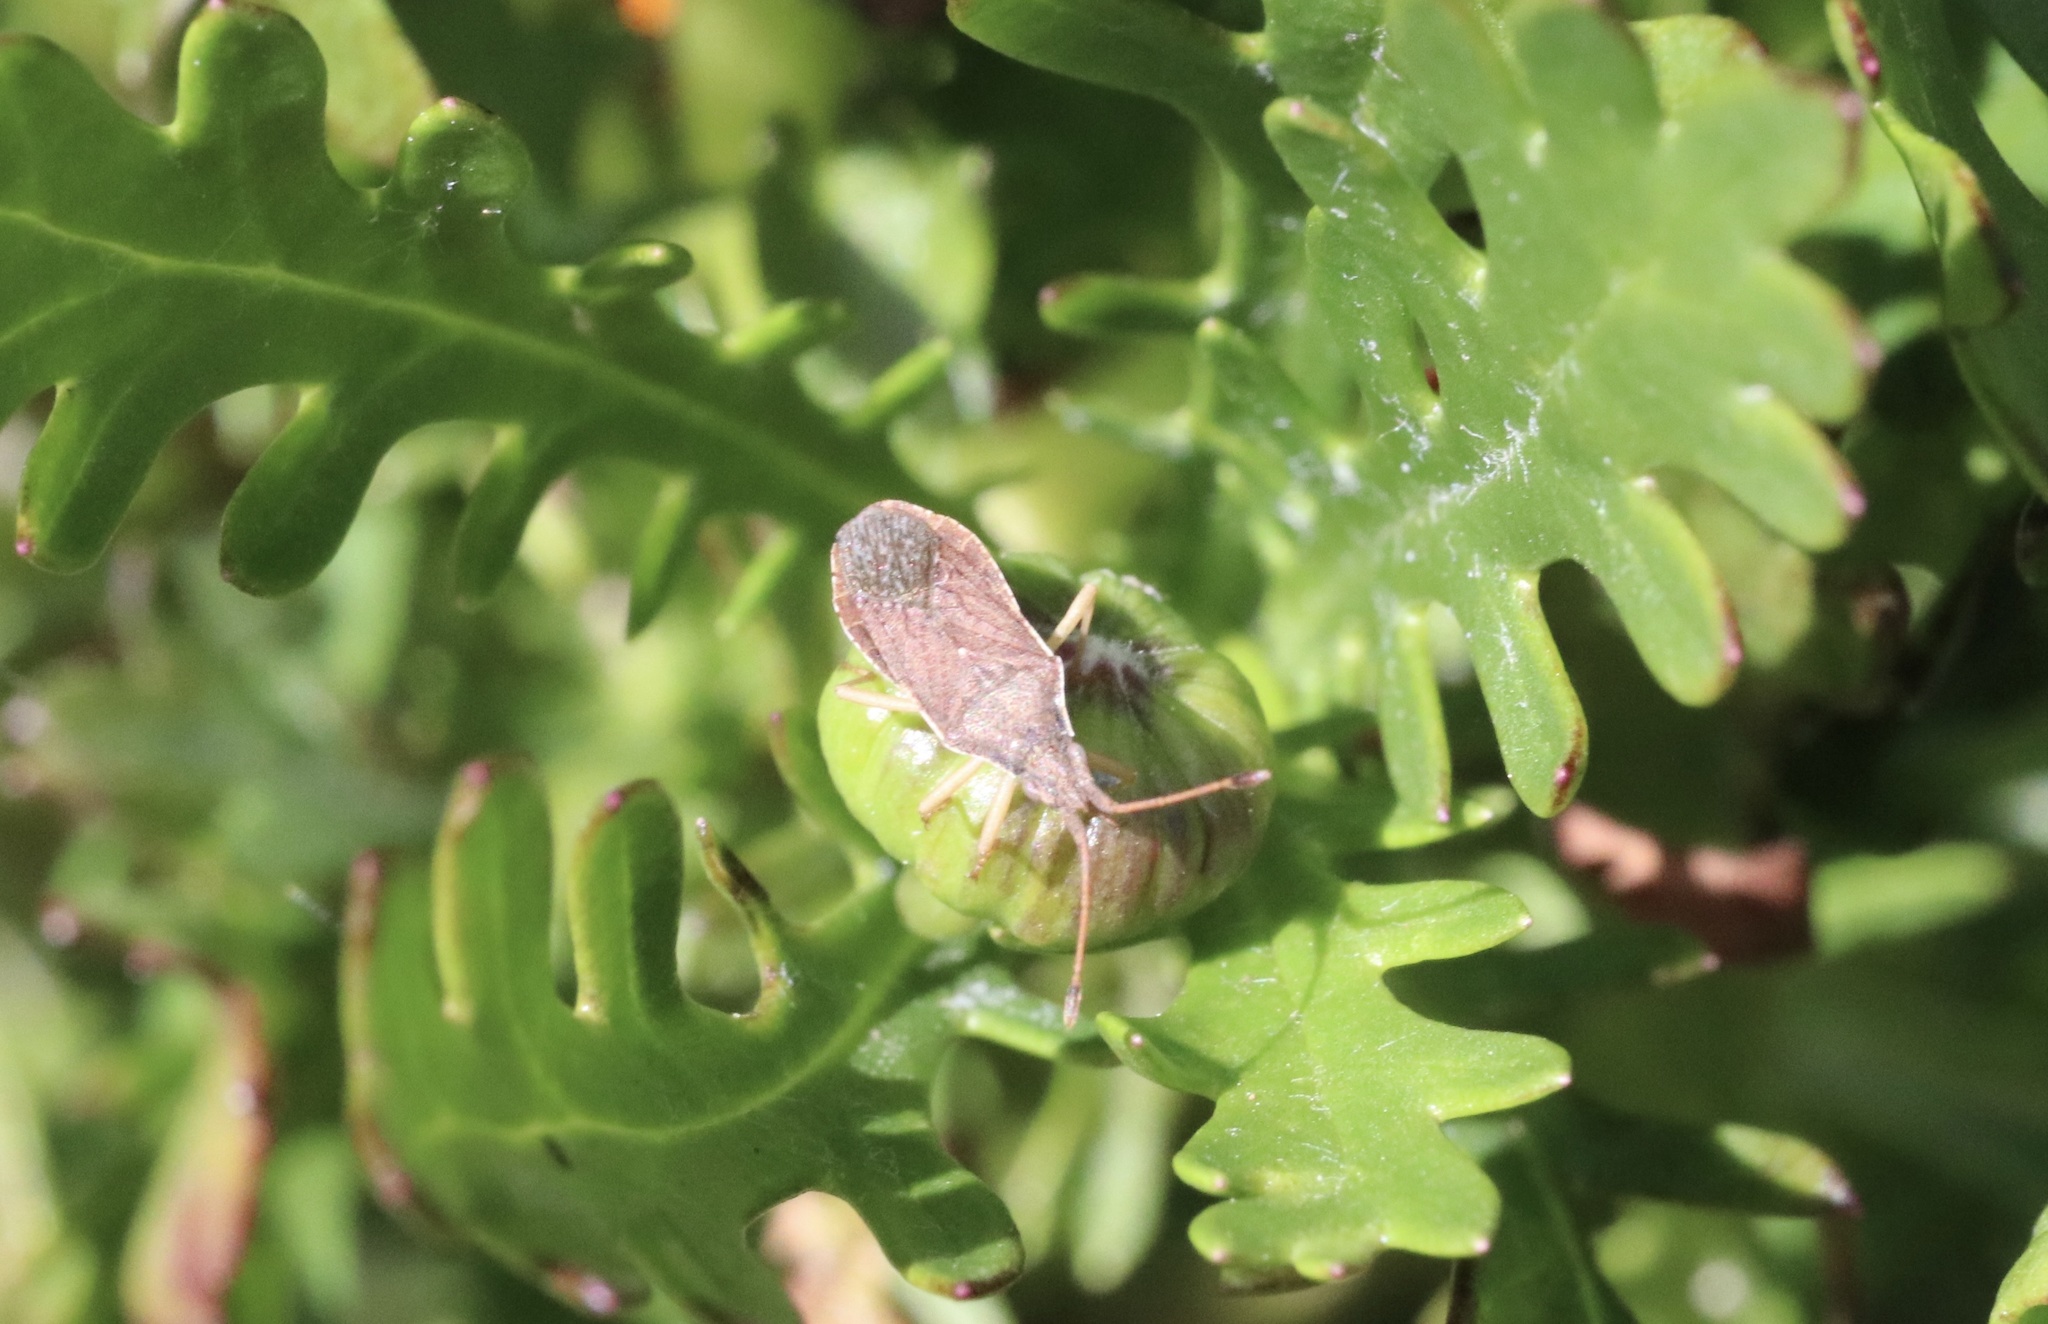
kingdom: Animalia
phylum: Arthropoda
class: Insecta
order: Hemiptera
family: Coreidae
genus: Althos
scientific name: Althos
